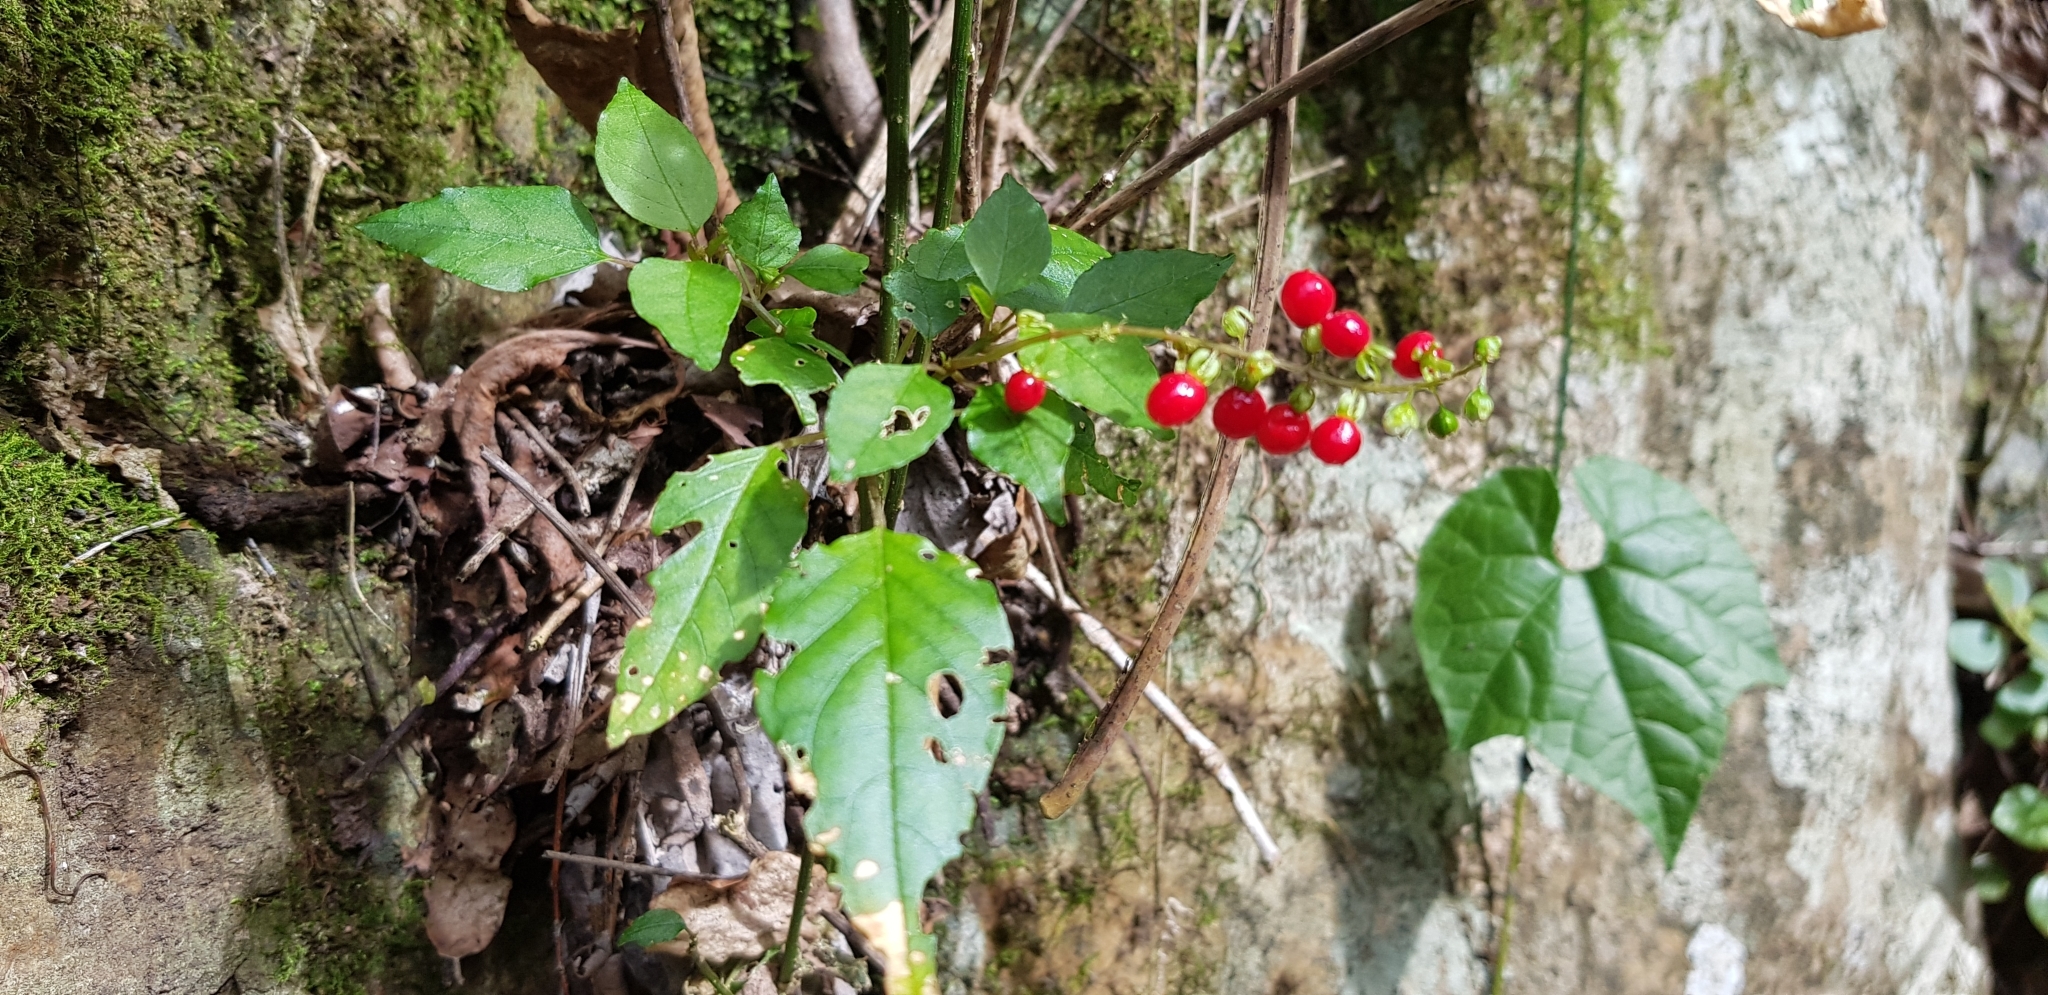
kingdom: Plantae
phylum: Tracheophyta
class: Magnoliopsida
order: Caryophyllales
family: Phytolaccaceae
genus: Rivina
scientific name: Rivina humilis
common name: Rougeplant
